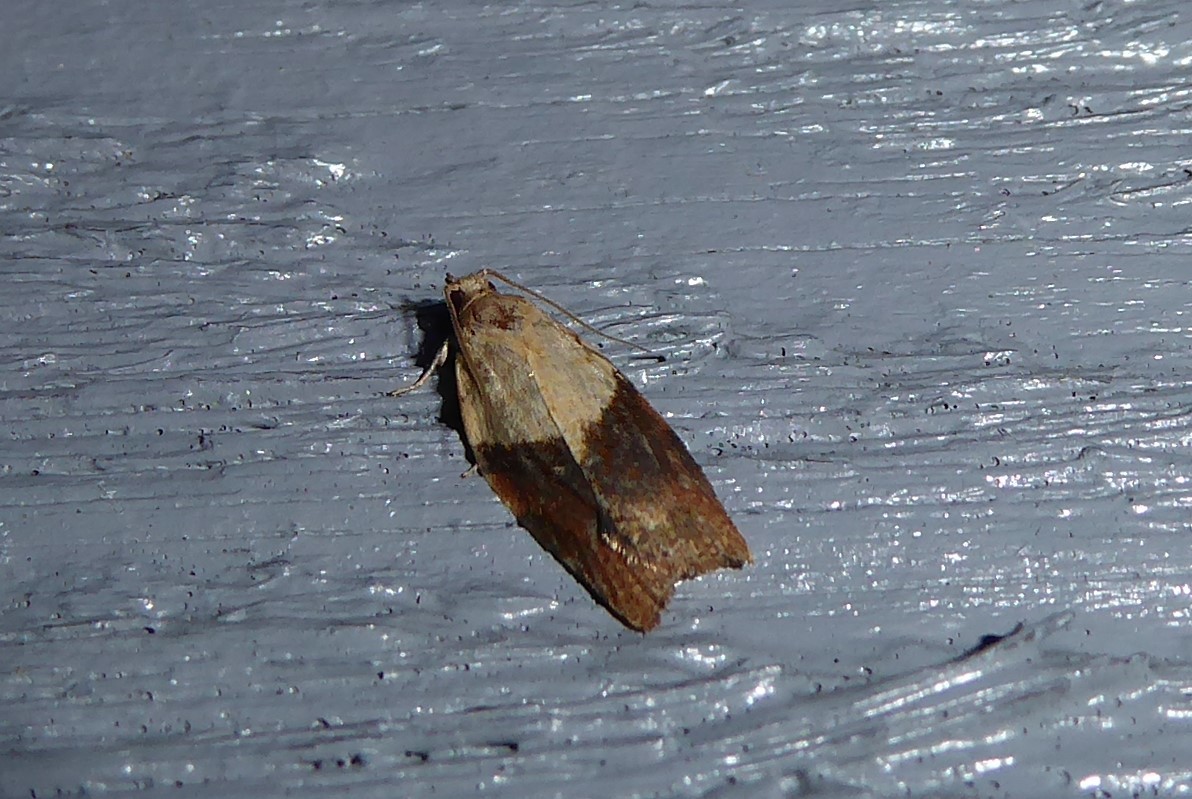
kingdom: Animalia
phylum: Arthropoda
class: Insecta
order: Lepidoptera
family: Tortricidae
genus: Epiphyas
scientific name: Epiphyas postvittana
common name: Light brown apple moth
